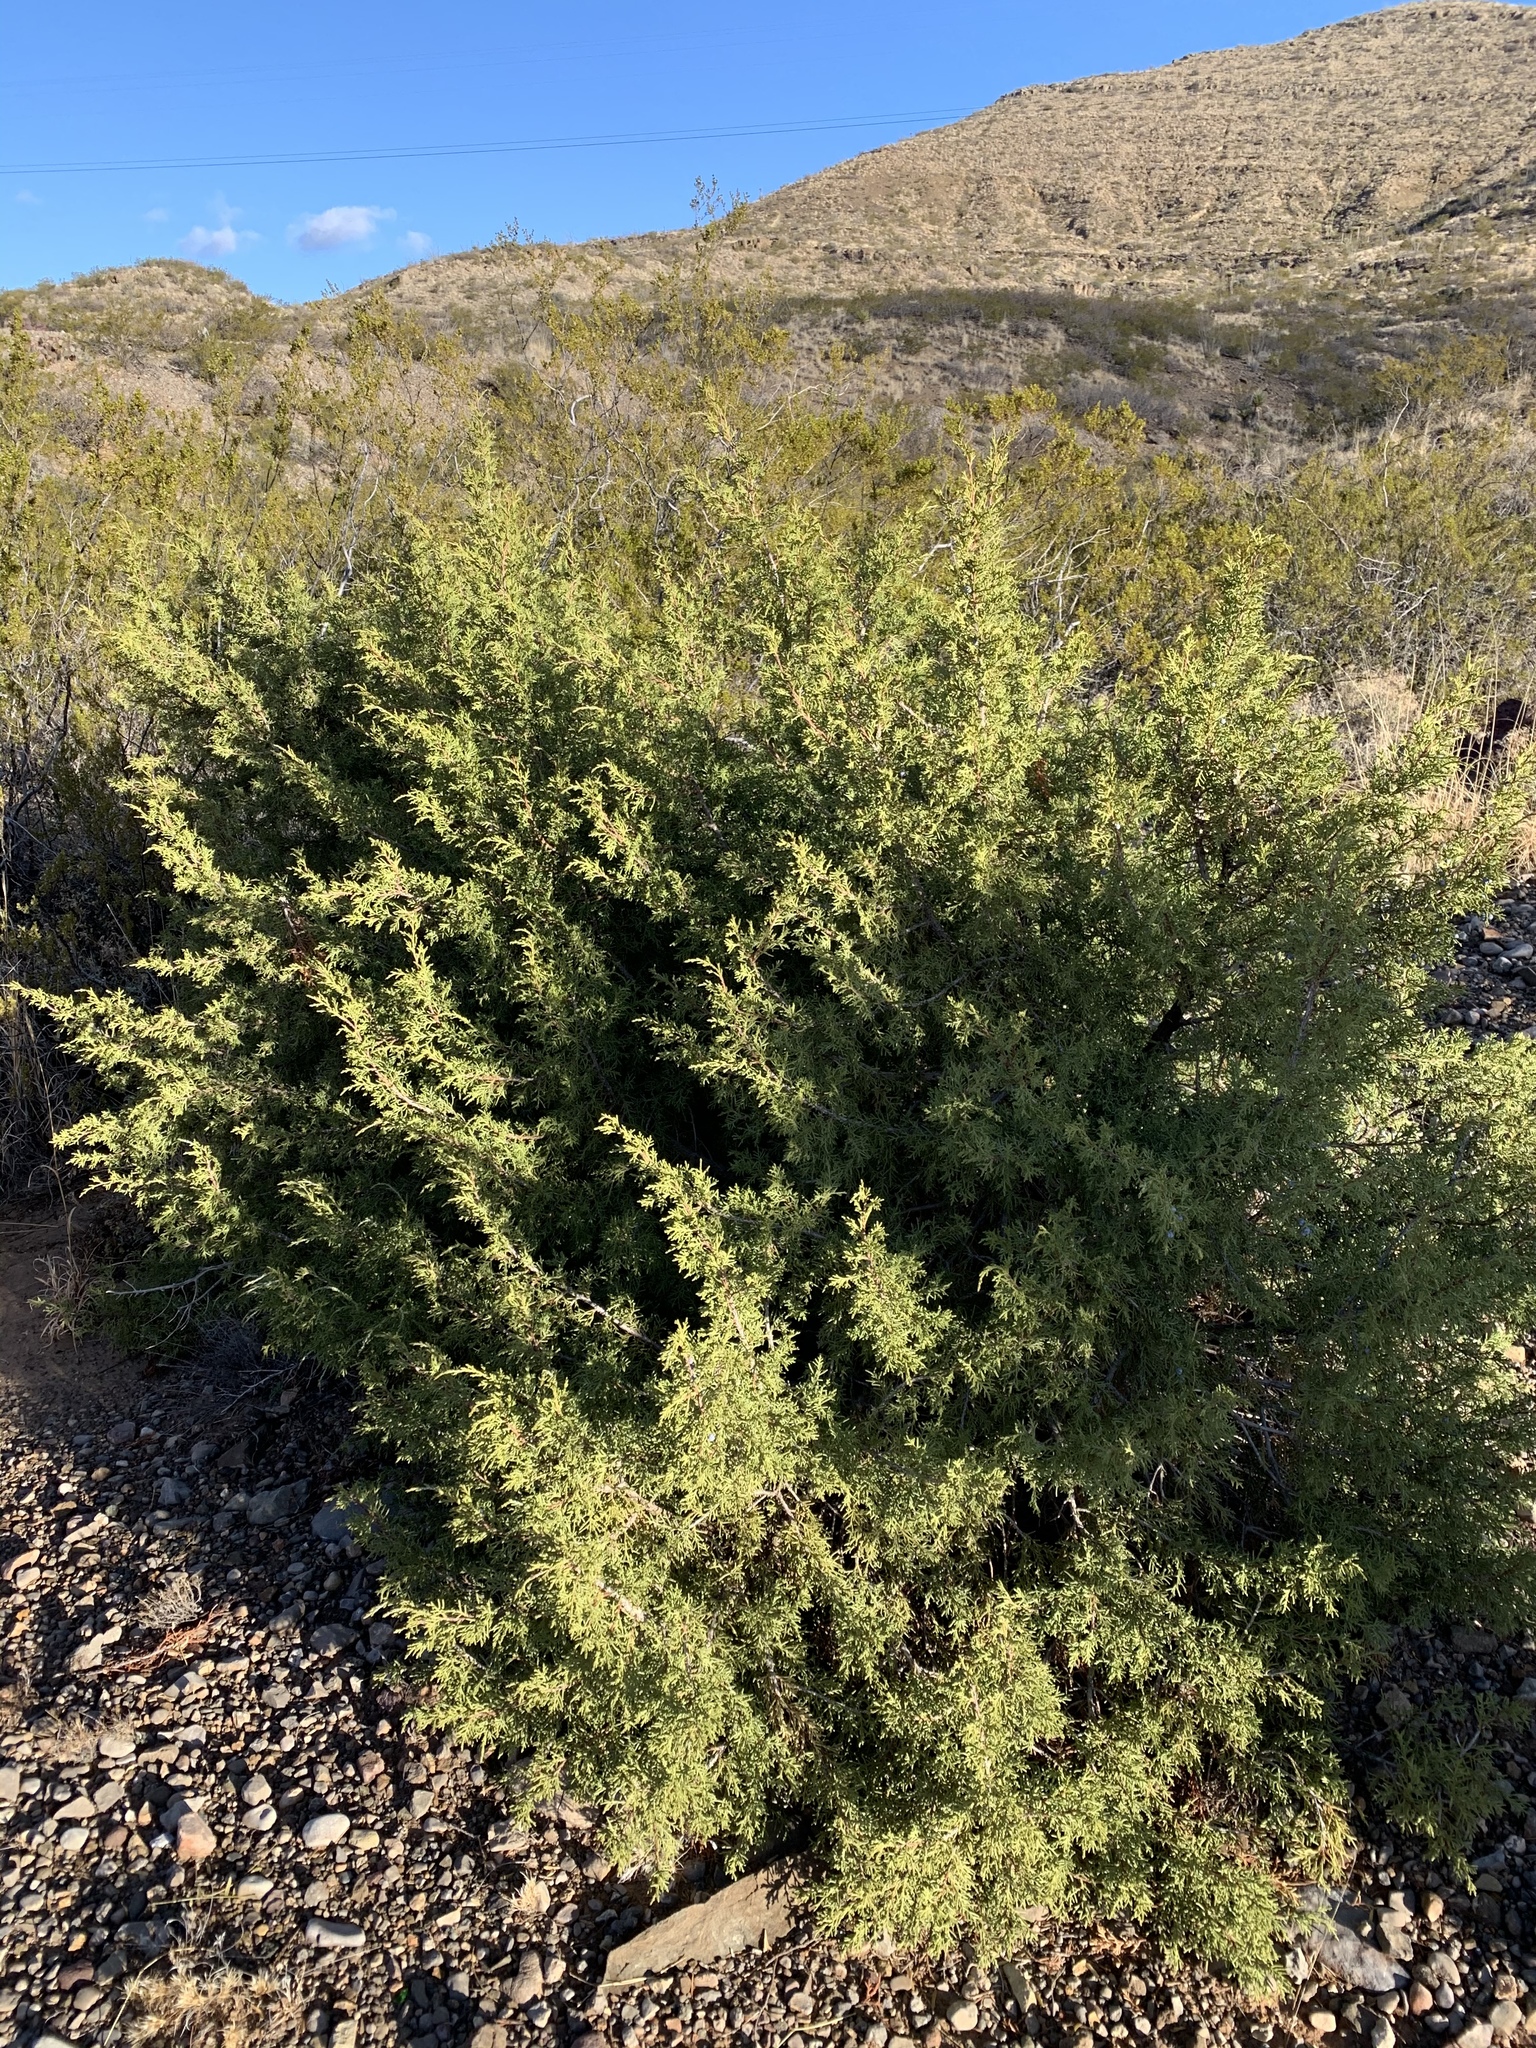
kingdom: Plantae
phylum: Tracheophyta
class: Pinopsida
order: Pinales
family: Cupressaceae
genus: Juniperus
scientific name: Juniperus monosperma
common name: One-seed juniper
